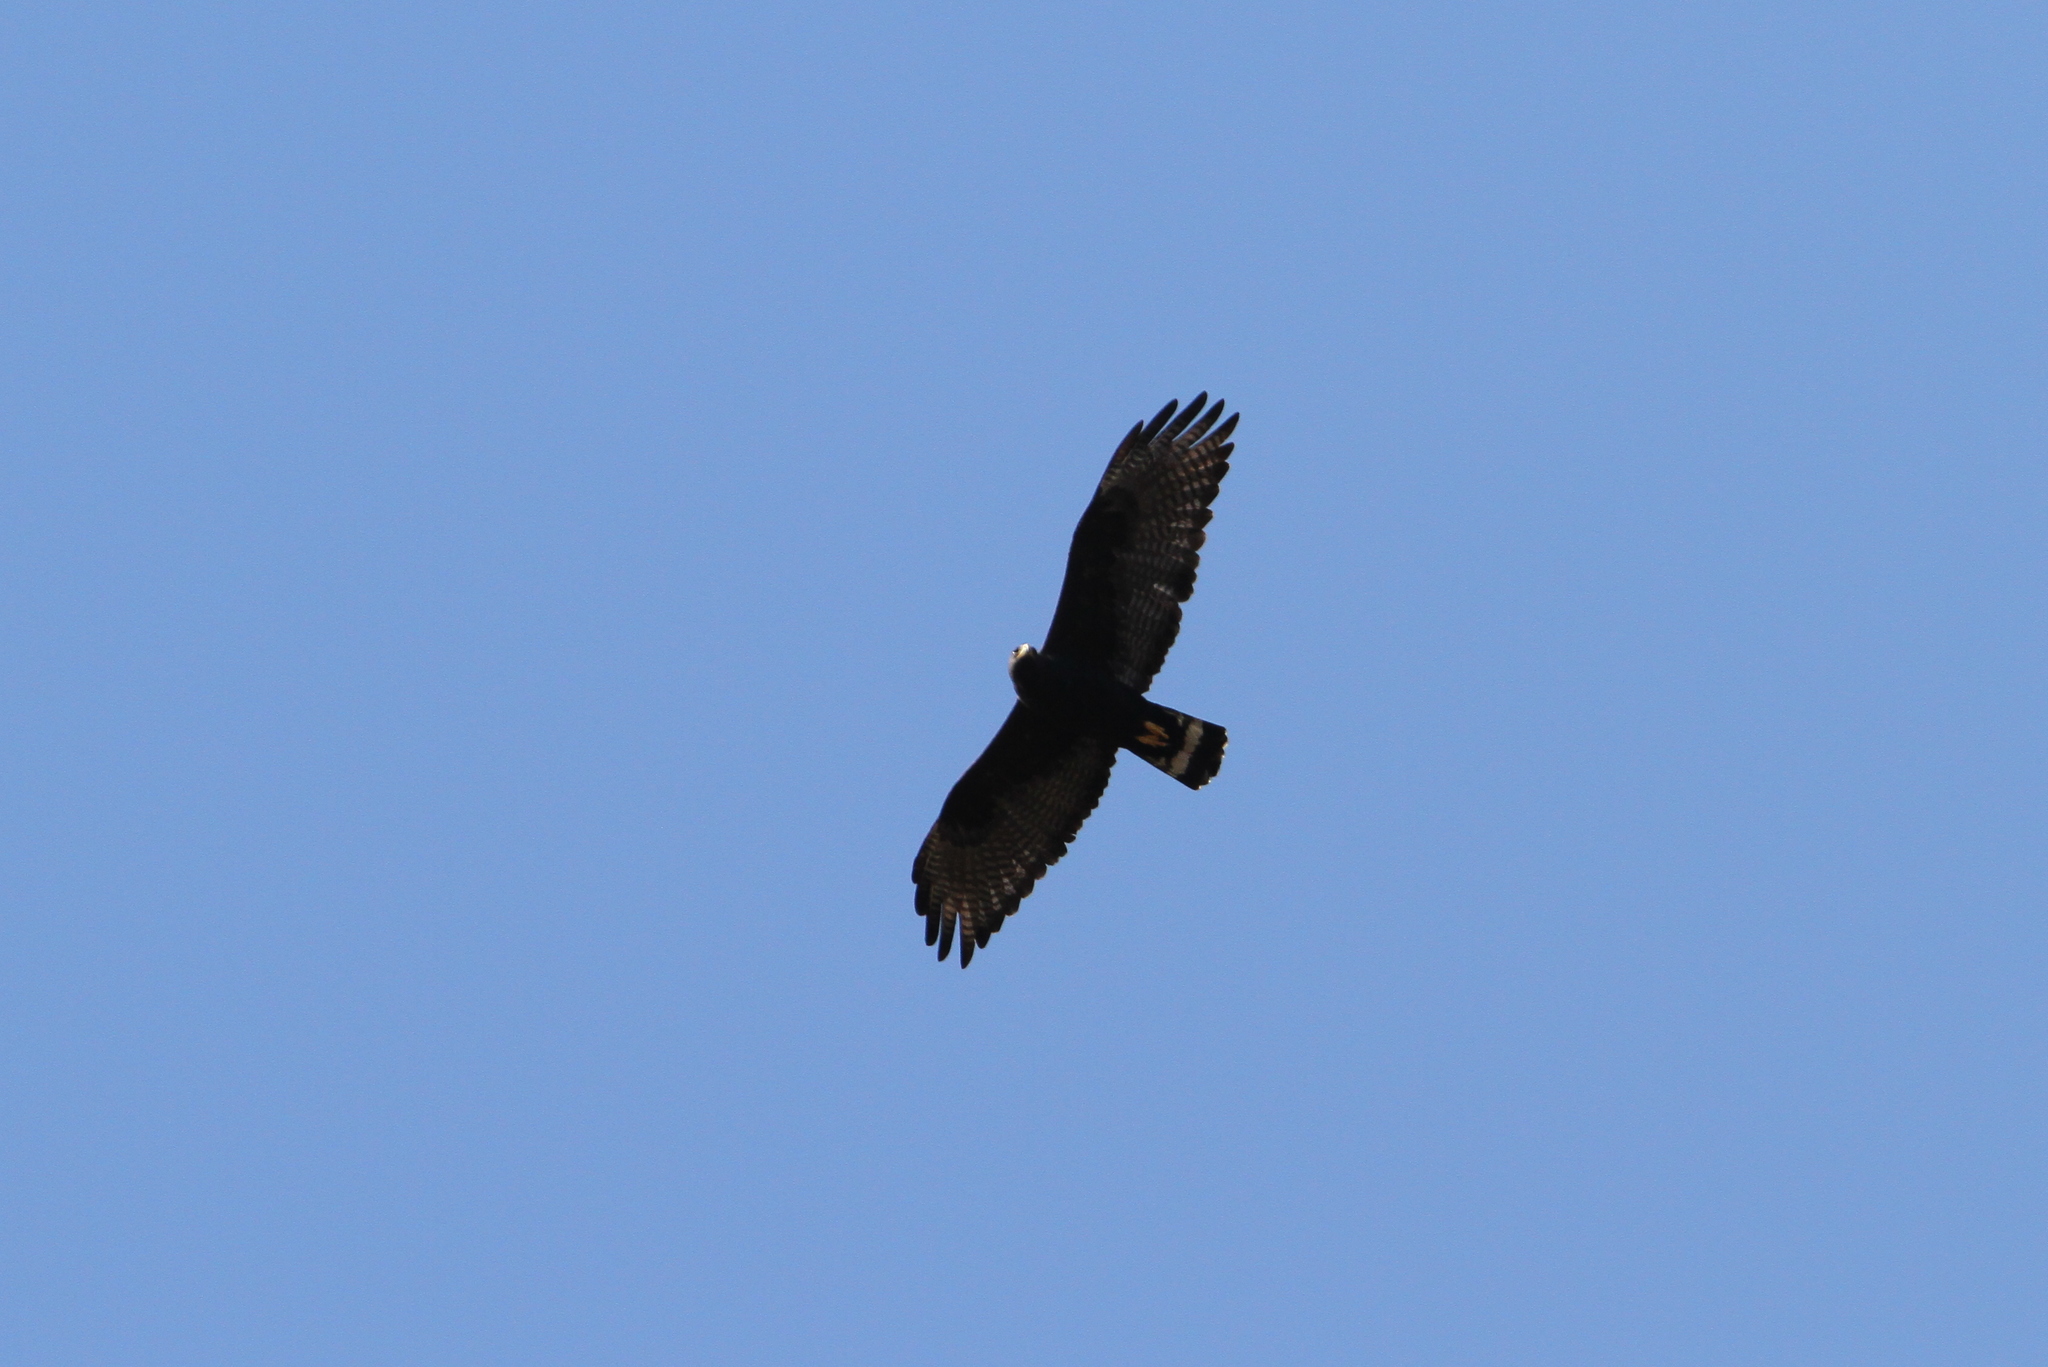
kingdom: Animalia
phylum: Chordata
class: Aves
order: Accipitriformes
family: Accipitridae
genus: Buteo
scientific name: Buteo albonotatus
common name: Zone-tailed hawk
